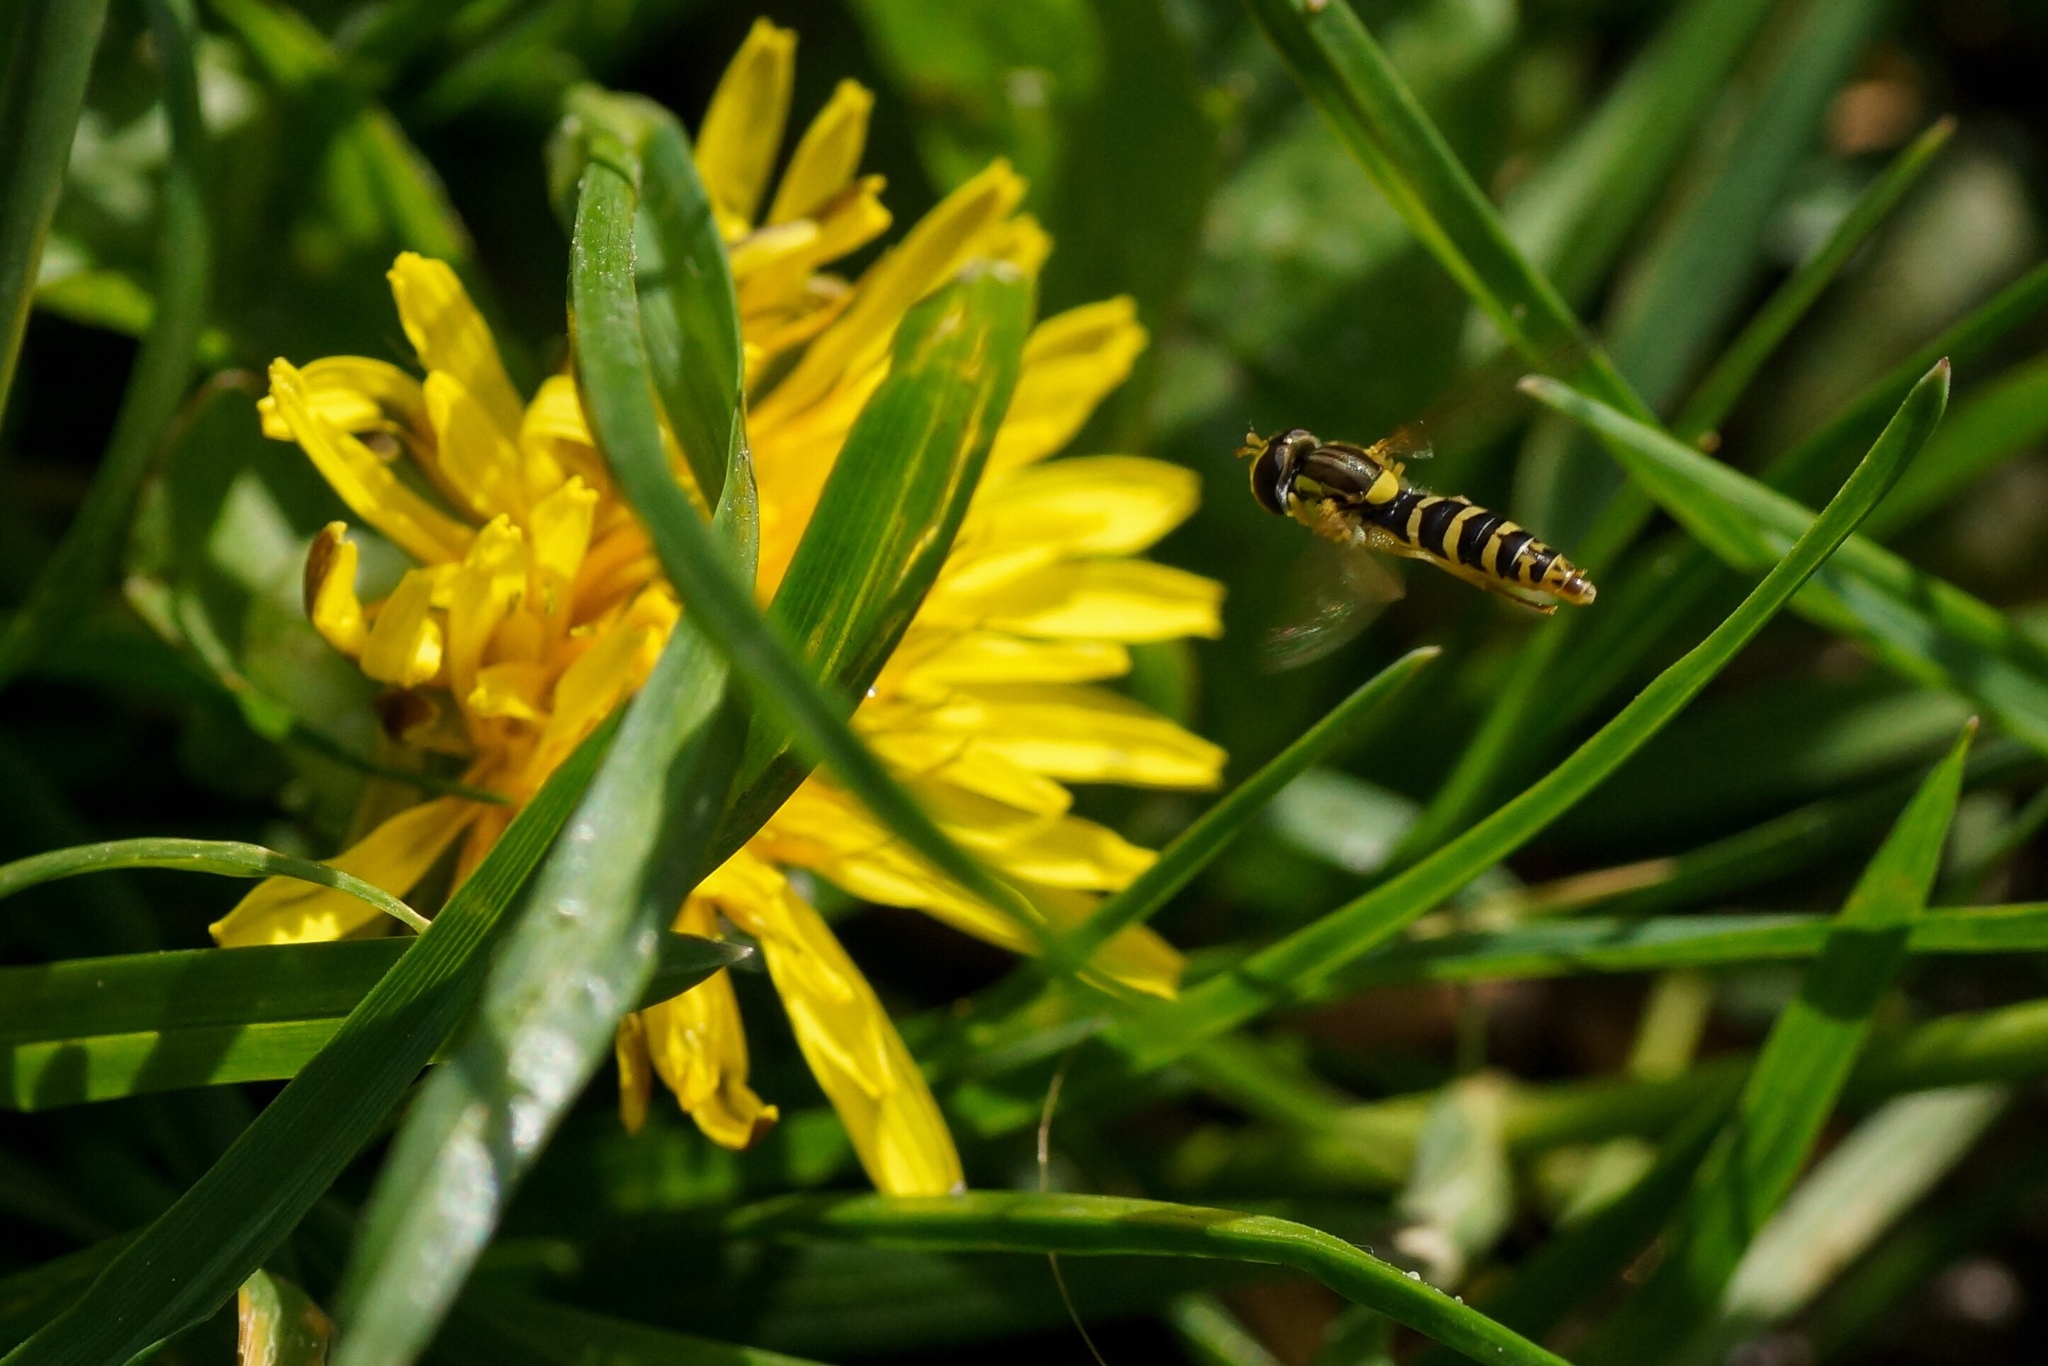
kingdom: Animalia
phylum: Arthropoda
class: Insecta
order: Diptera
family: Syrphidae
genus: Sphaerophoria
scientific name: Sphaerophoria
